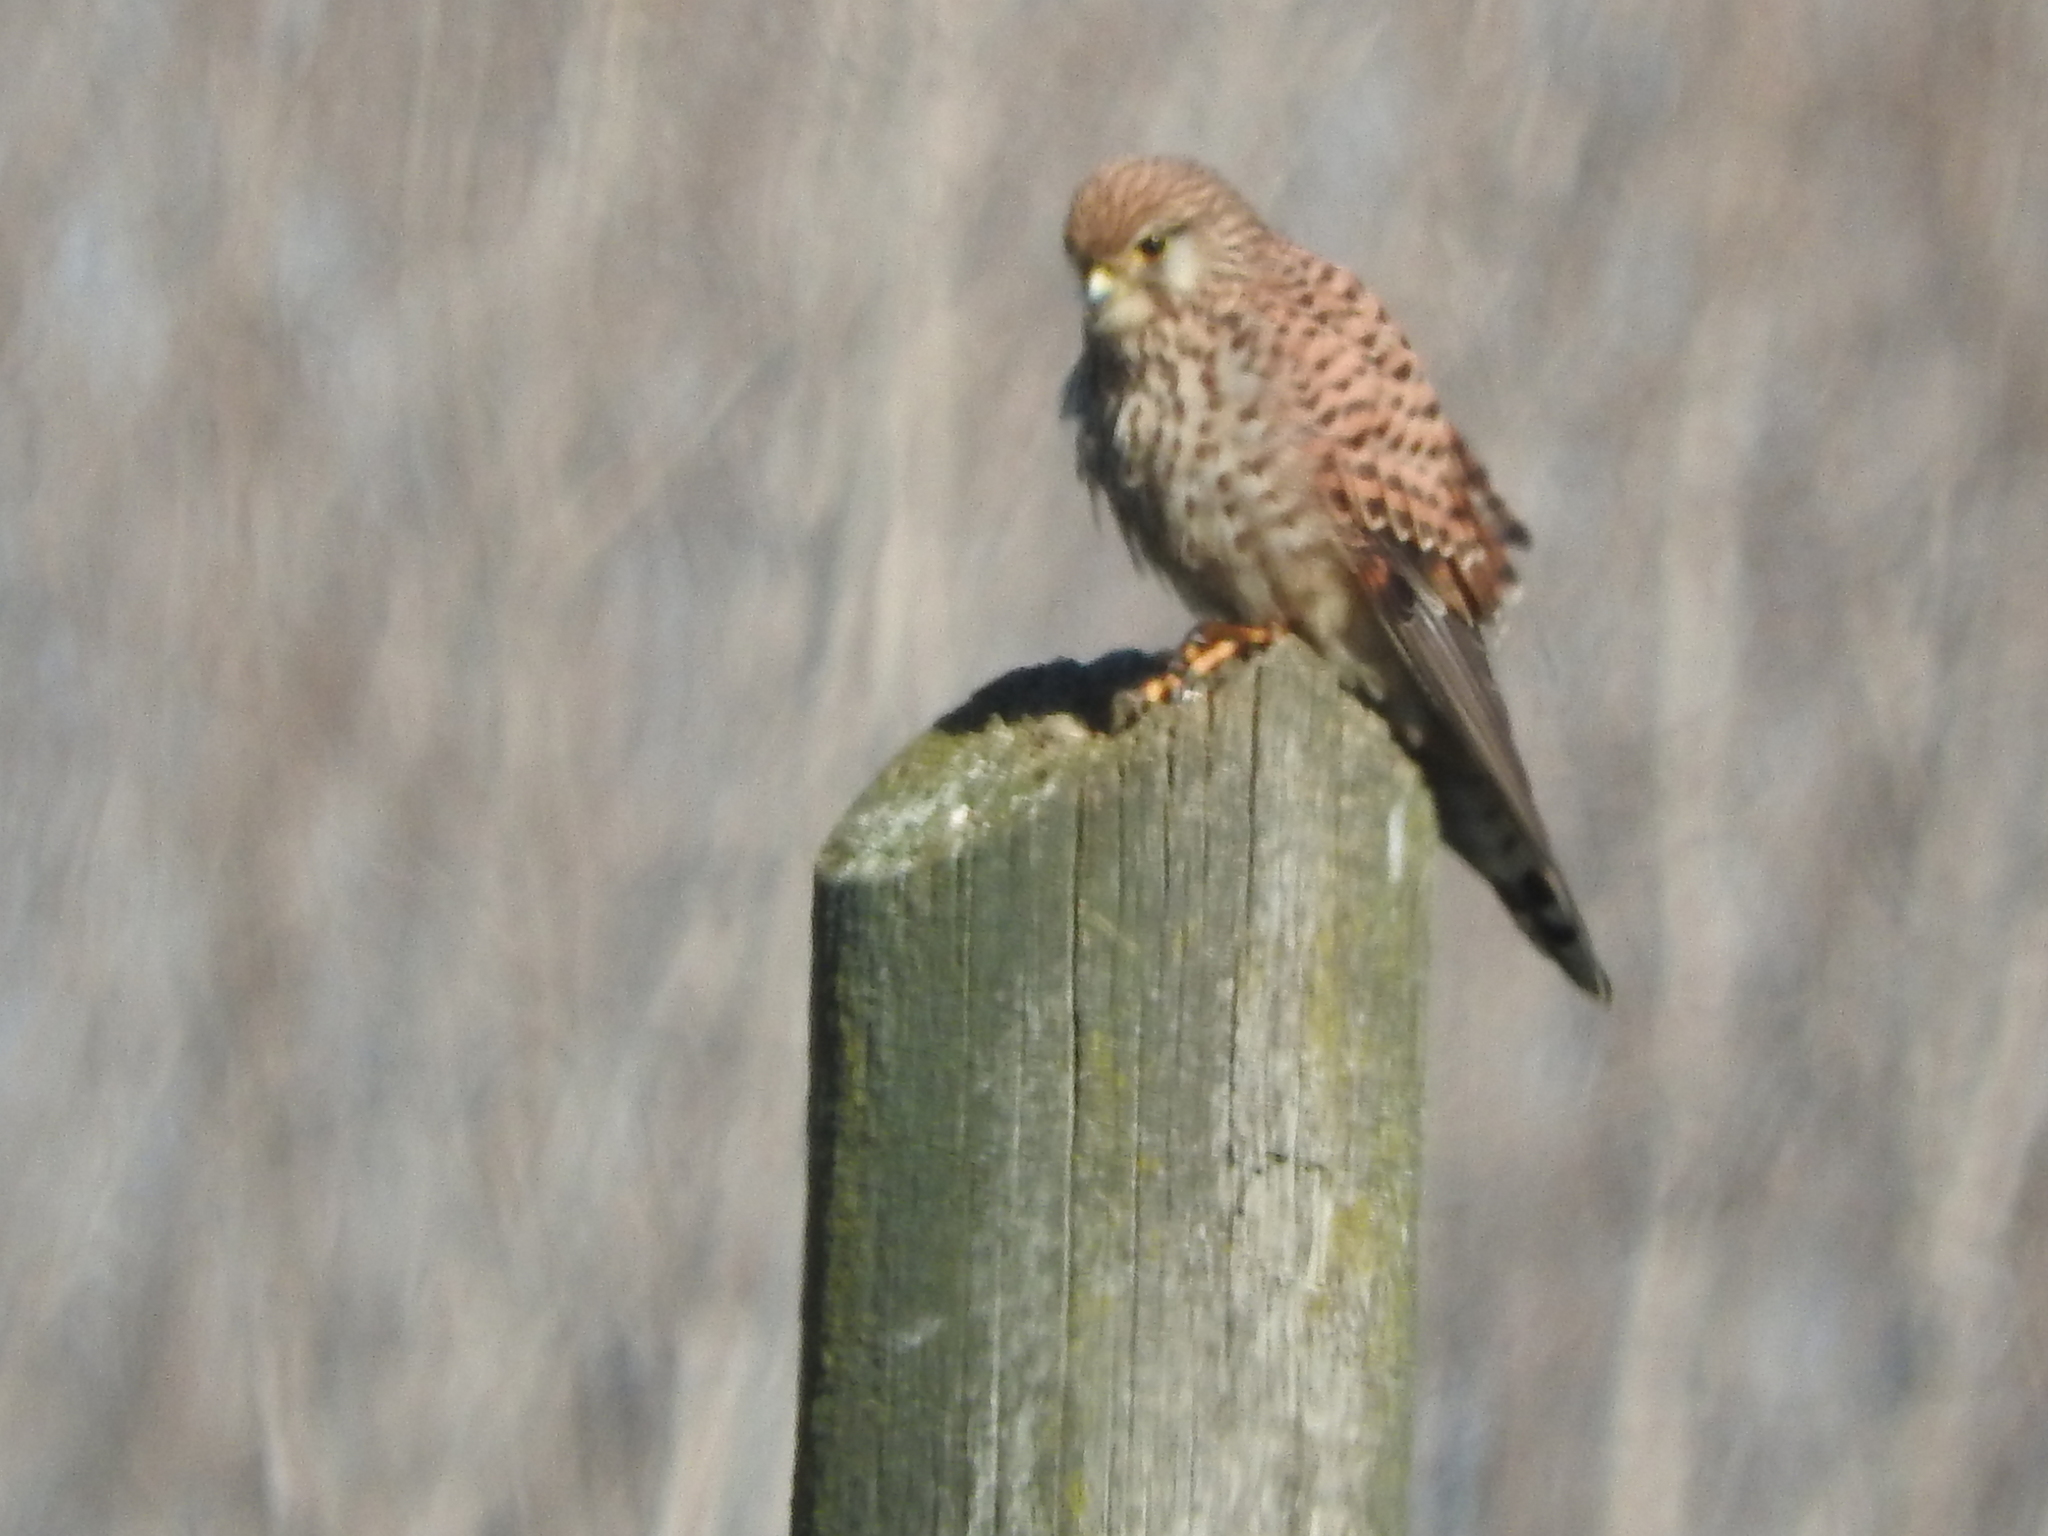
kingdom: Animalia
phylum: Chordata
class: Aves
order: Falconiformes
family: Falconidae
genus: Falco
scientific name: Falco tinnunculus
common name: Common kestrel
